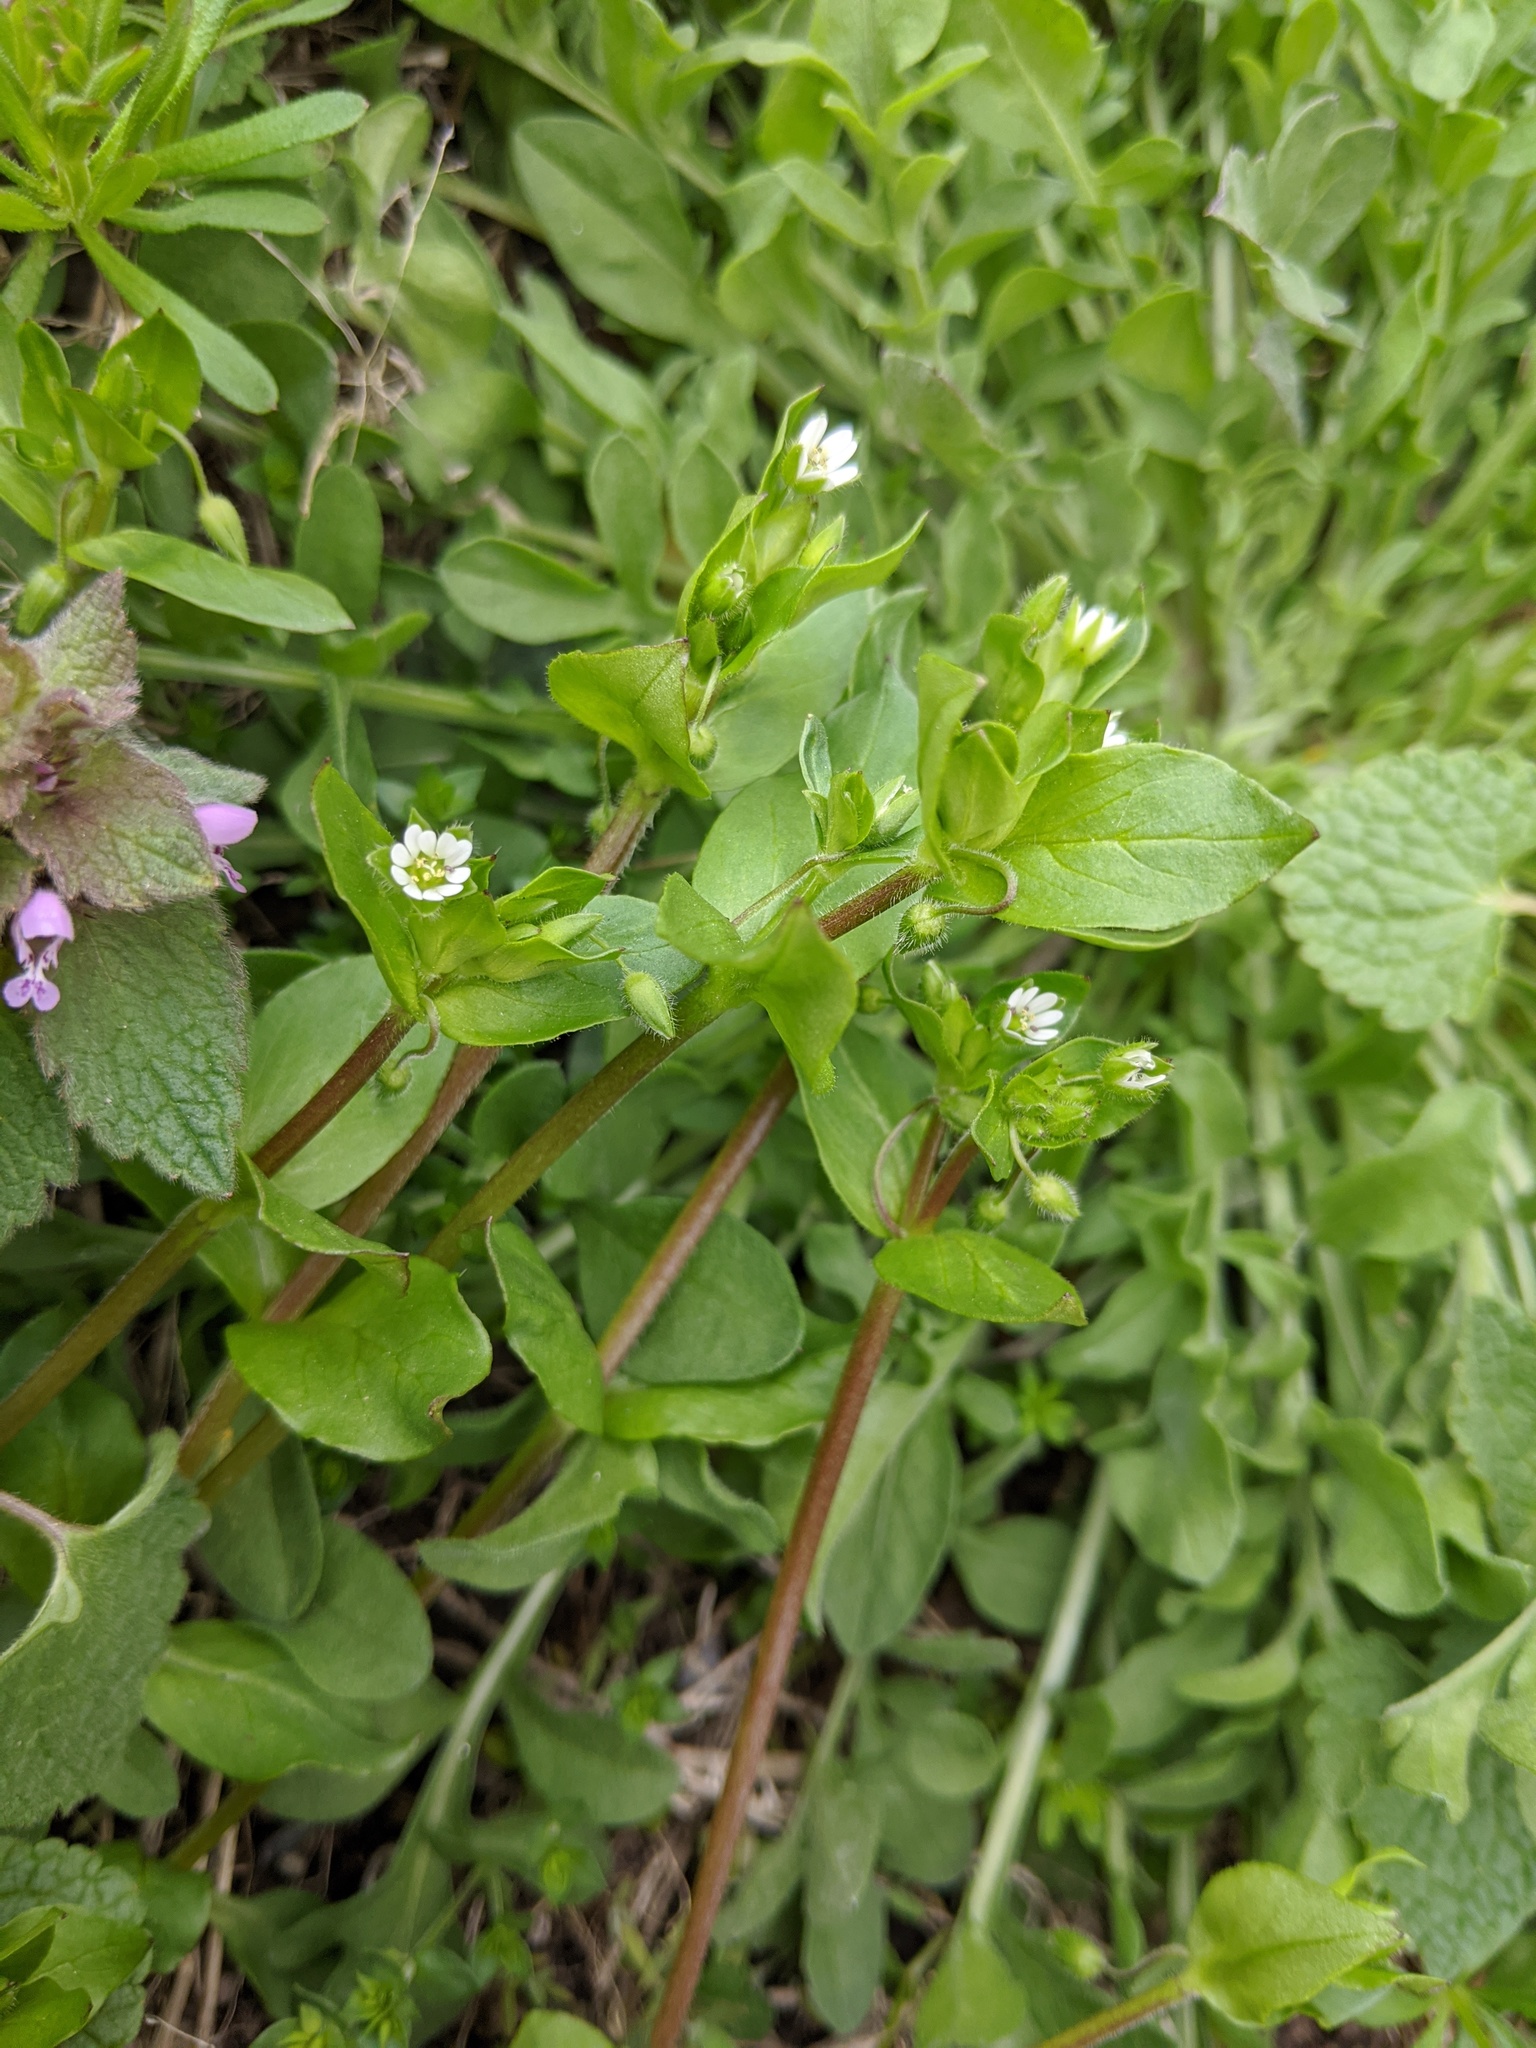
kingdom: Plantae
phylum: Tracheophyta
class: Magnoliopsida
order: Caryophyllales
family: Caryophyllaceae
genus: Stellaria
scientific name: Stellaria media
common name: Common chickweed
